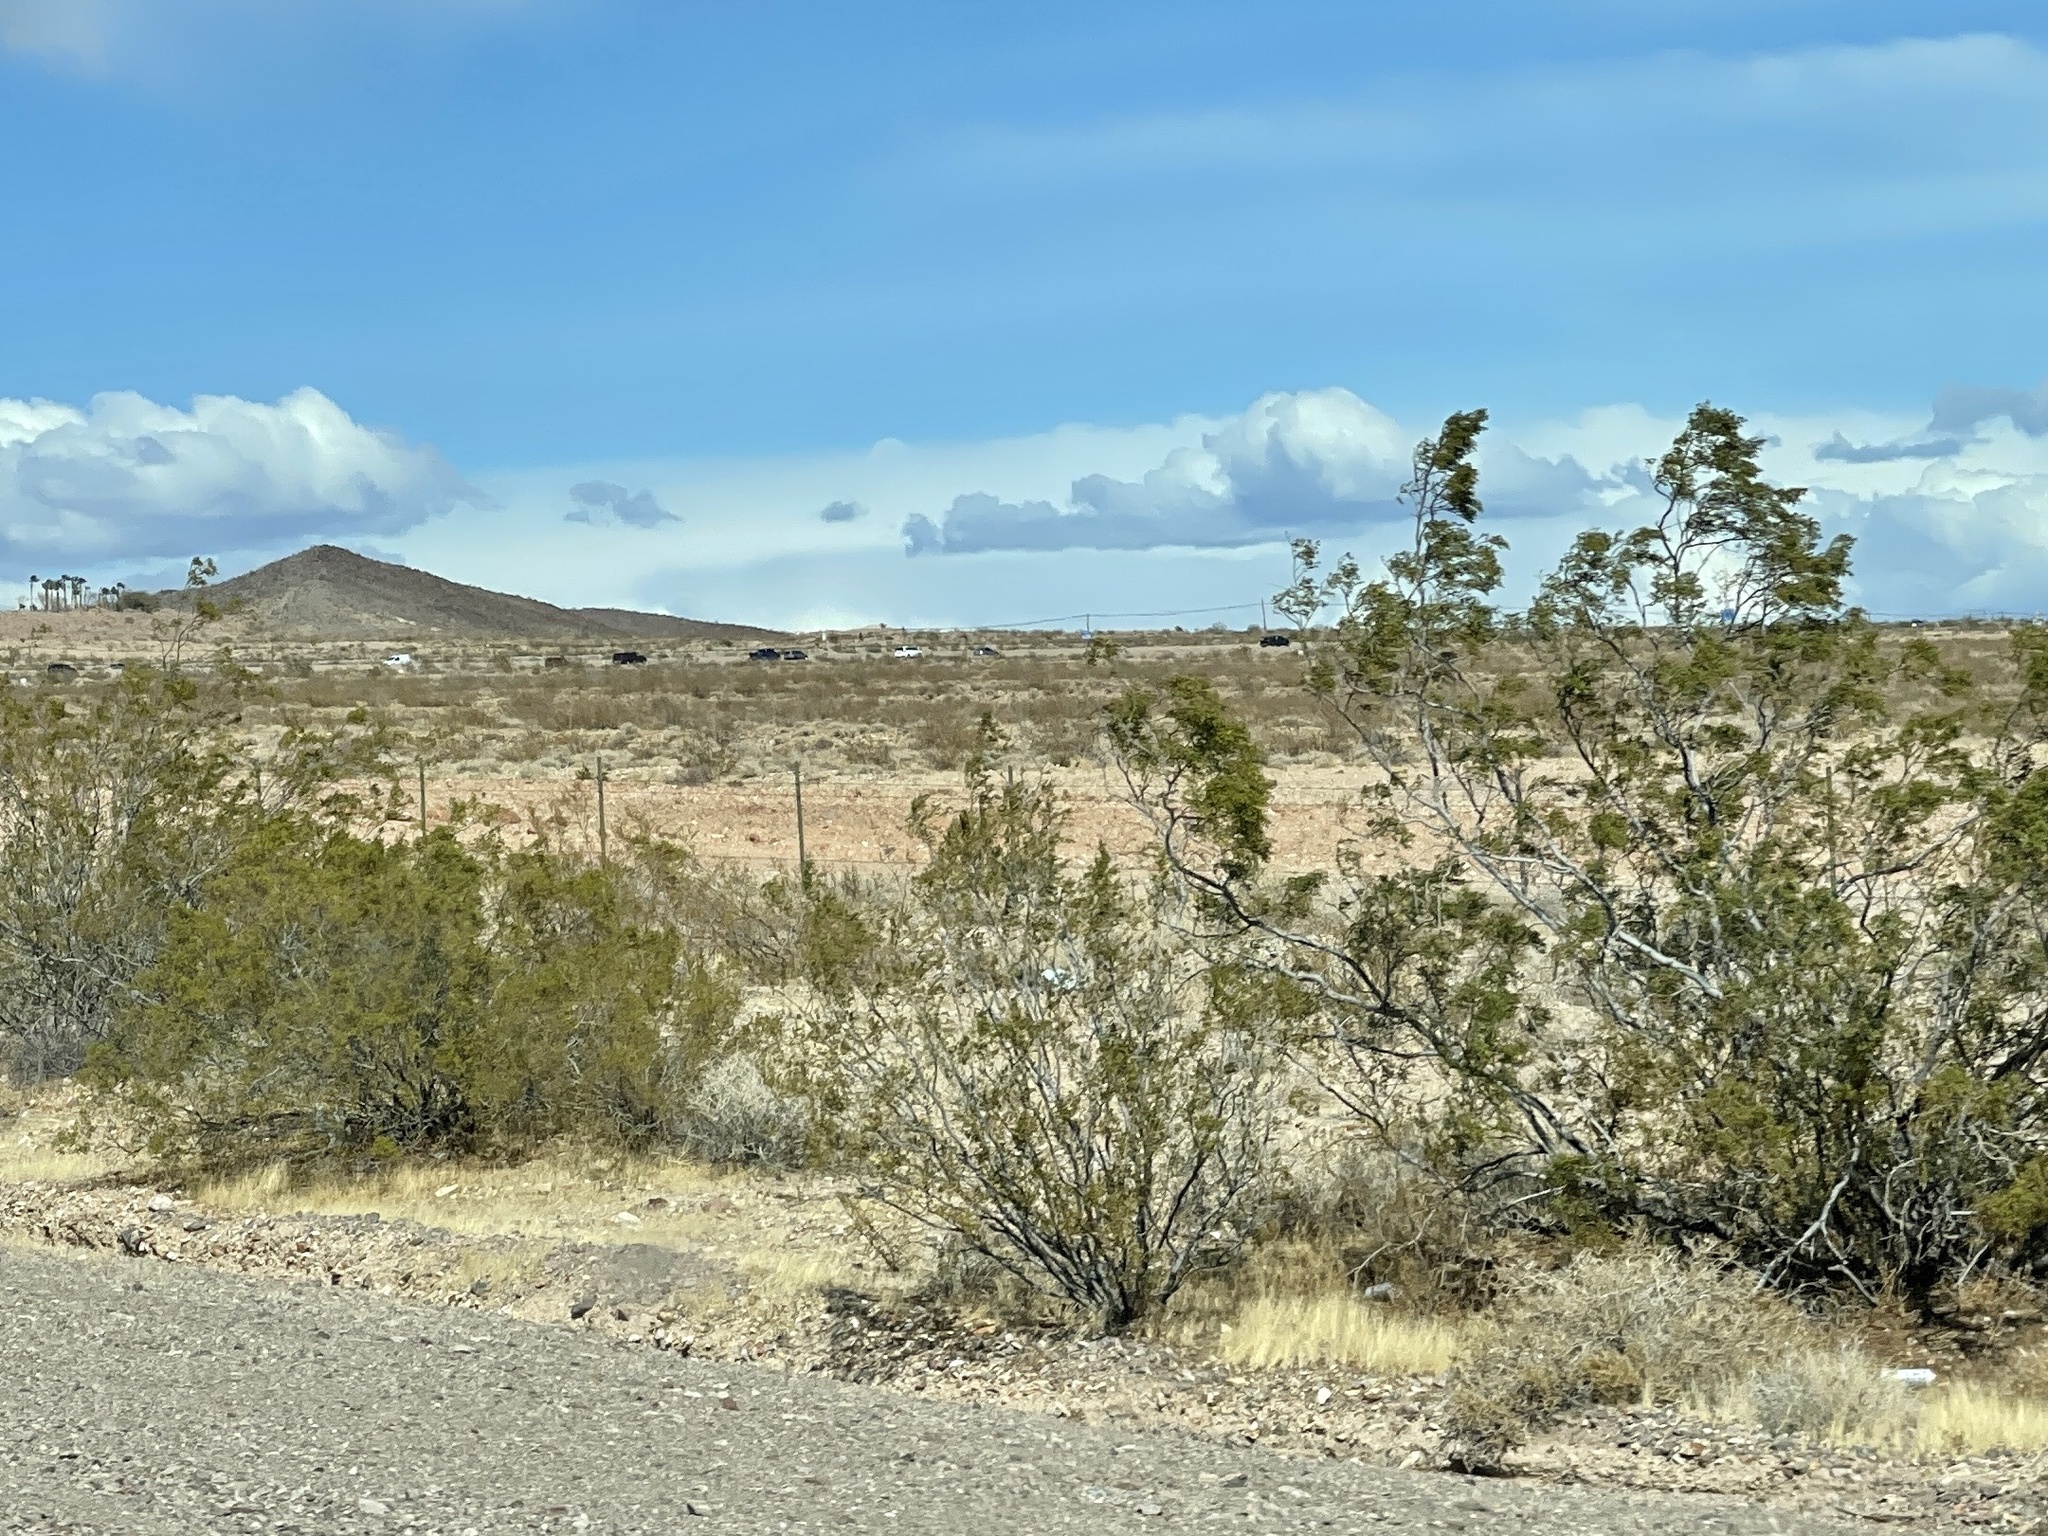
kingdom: Plantae
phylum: Tracheophyta
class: Magnoliopsida
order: Zygophyllales
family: Zygophyllaceae
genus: Larrea
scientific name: Larrea tridentata
